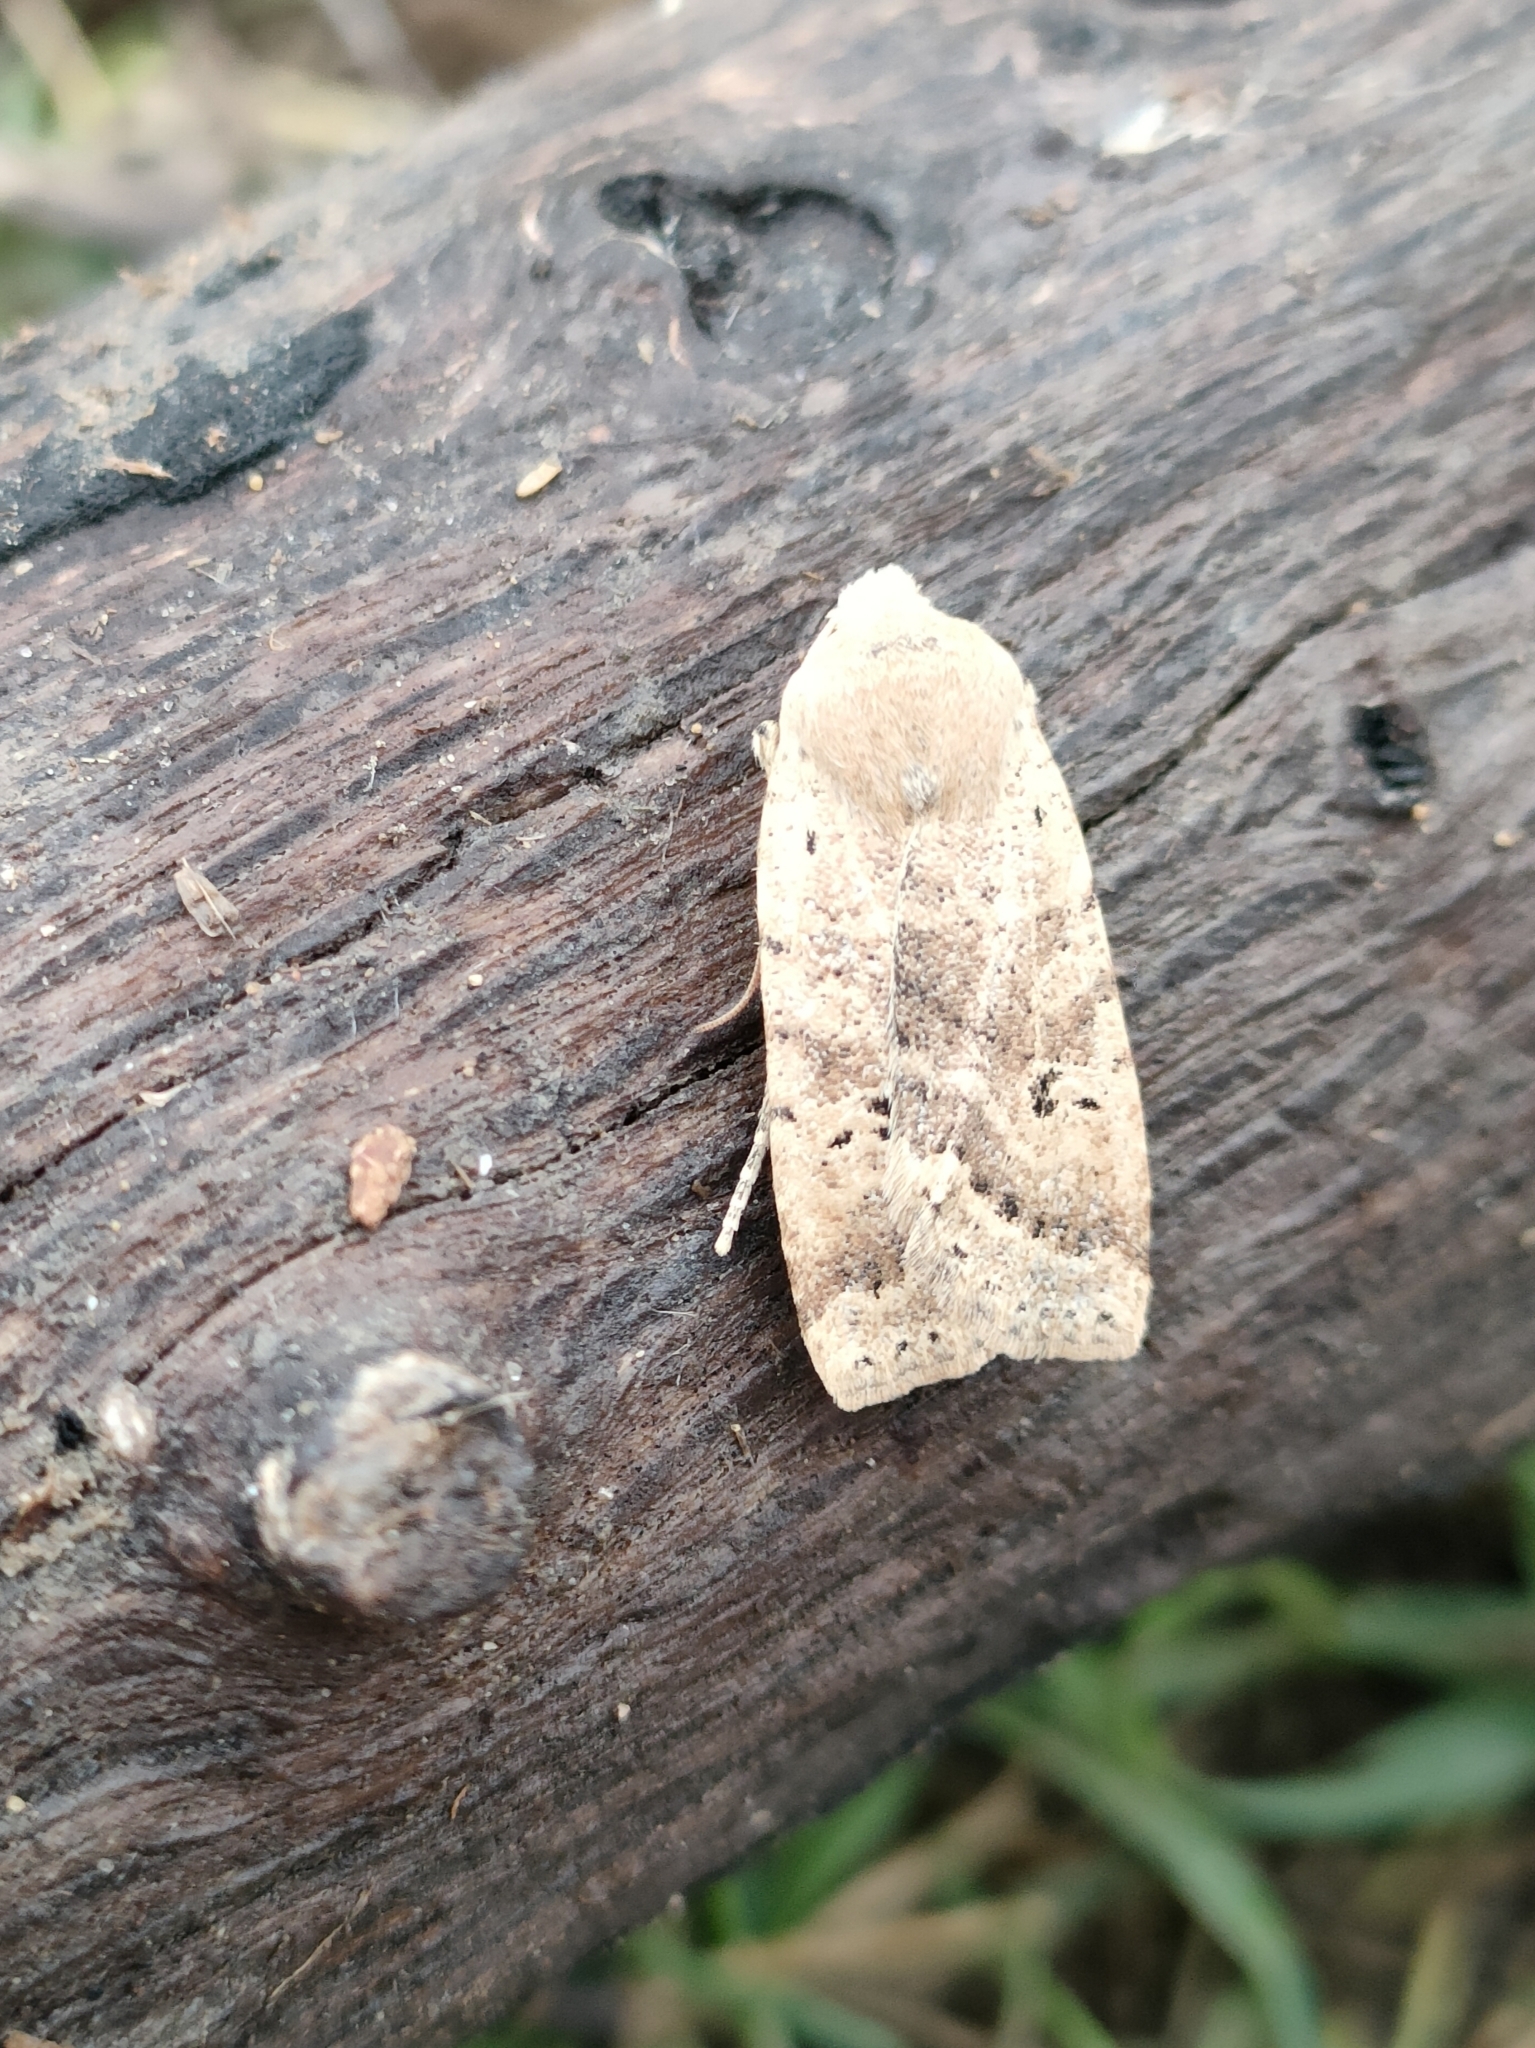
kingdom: Animalia
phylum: Arthropoda
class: Insecta
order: Lepidoptera
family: Noctuidae
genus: Conistra
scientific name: Conistra daubei
